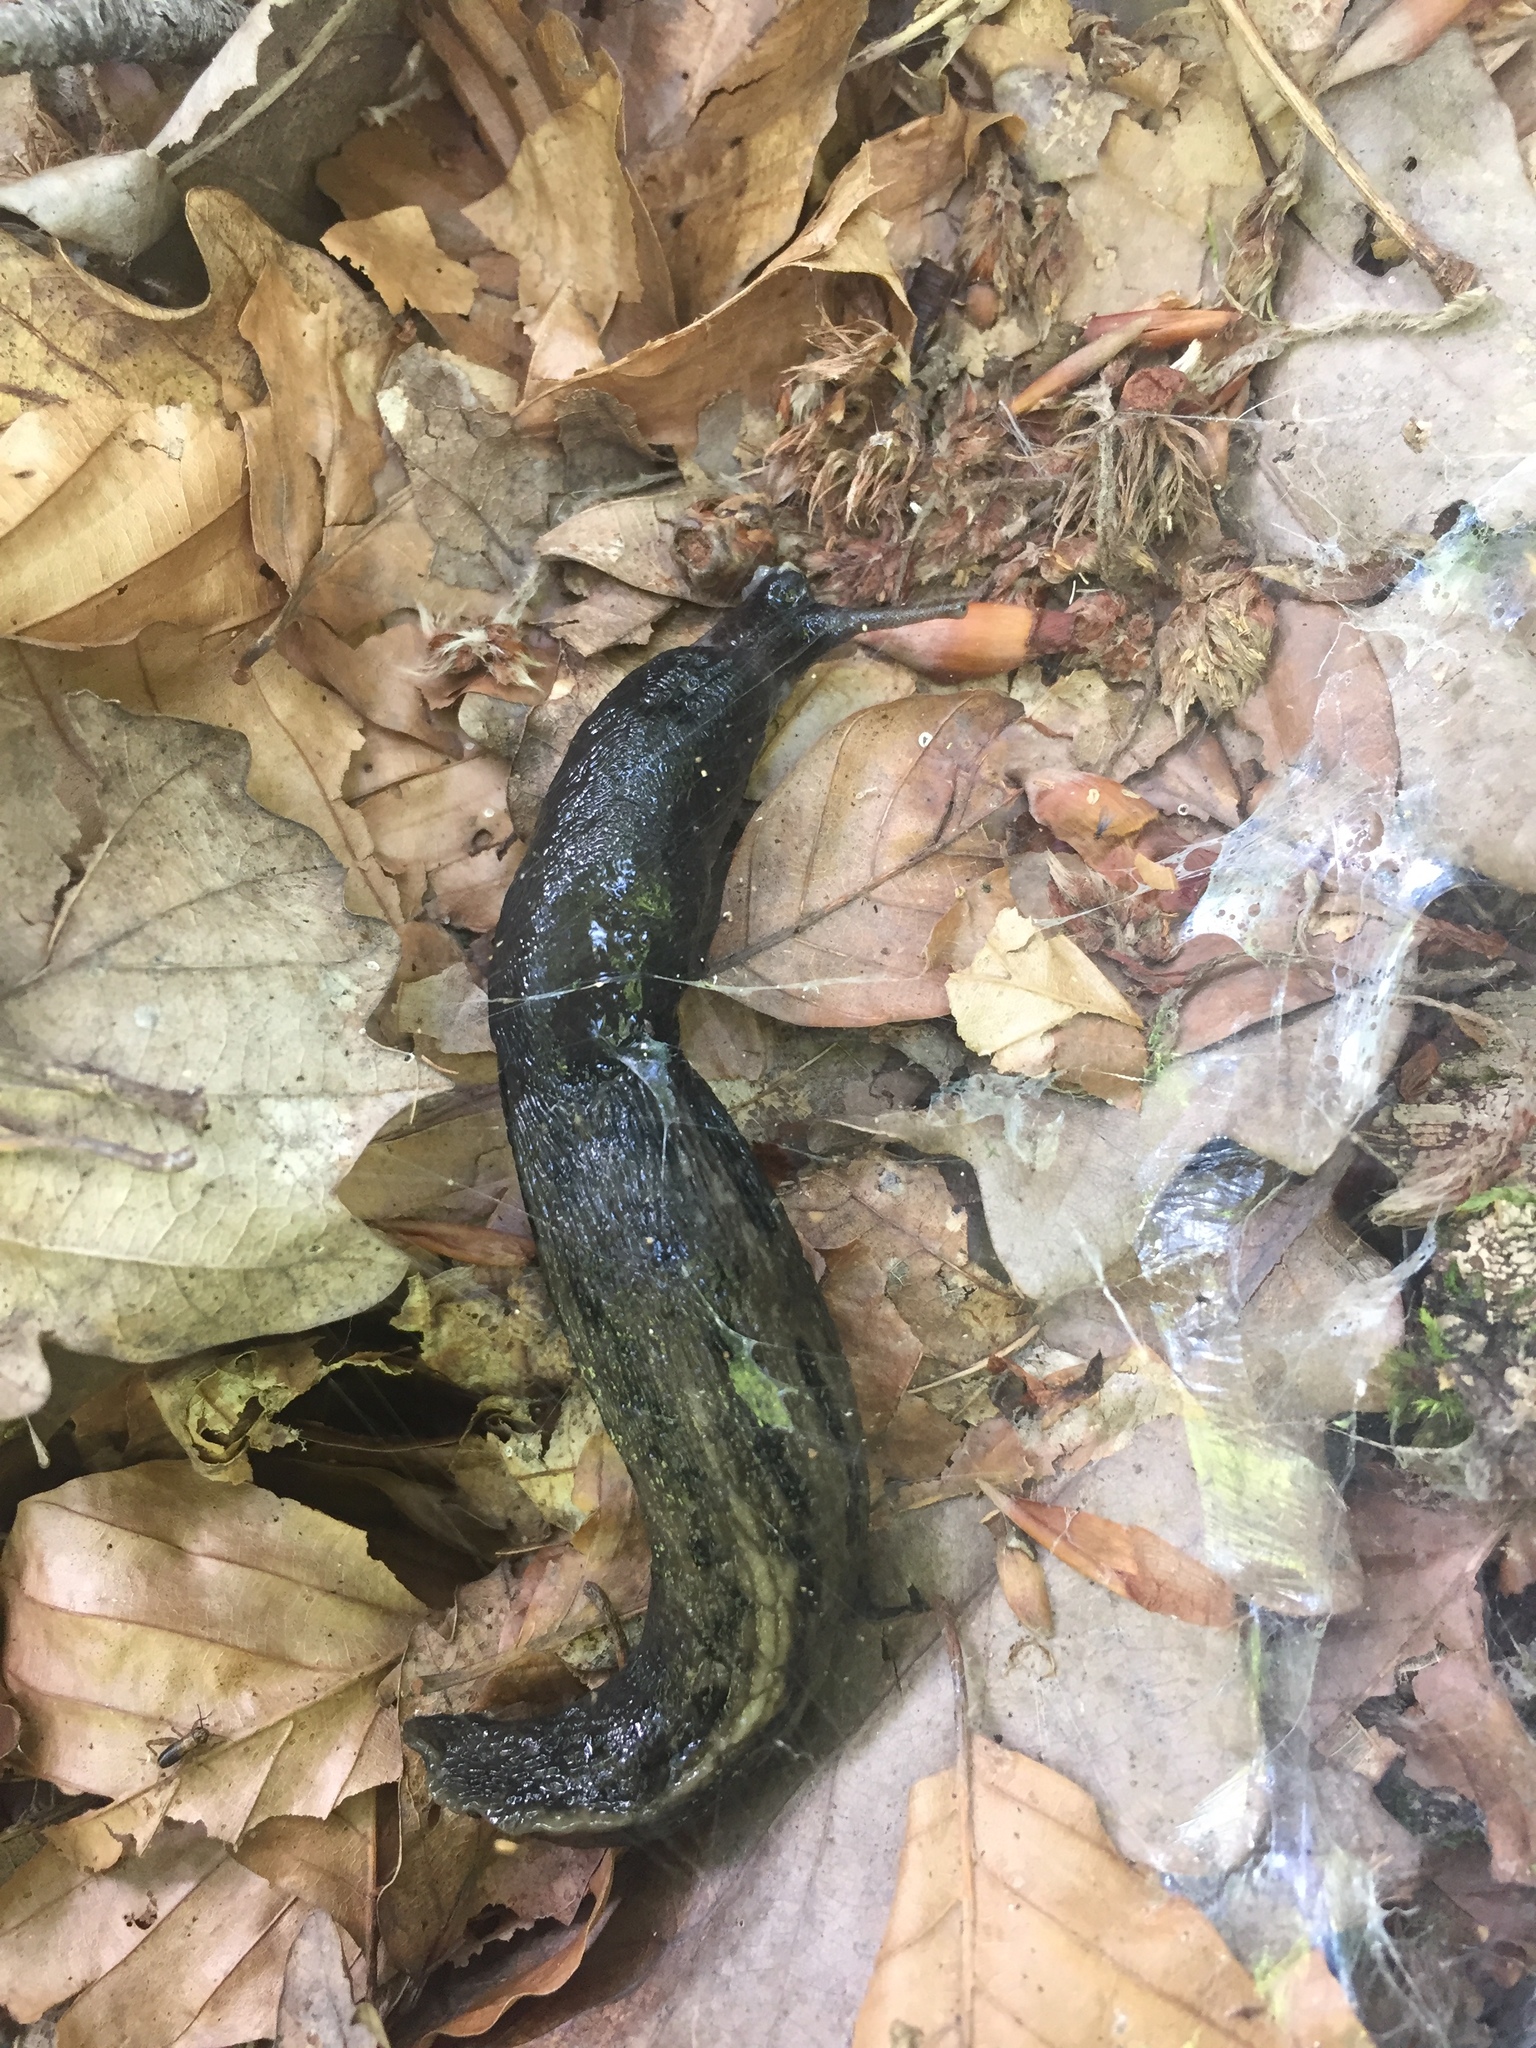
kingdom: Animalia
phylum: Mollusca
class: Gastropoda
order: Stylommatophora
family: Limacidae
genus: Limax
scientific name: Limax cinereoniger
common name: Ash-black slug
